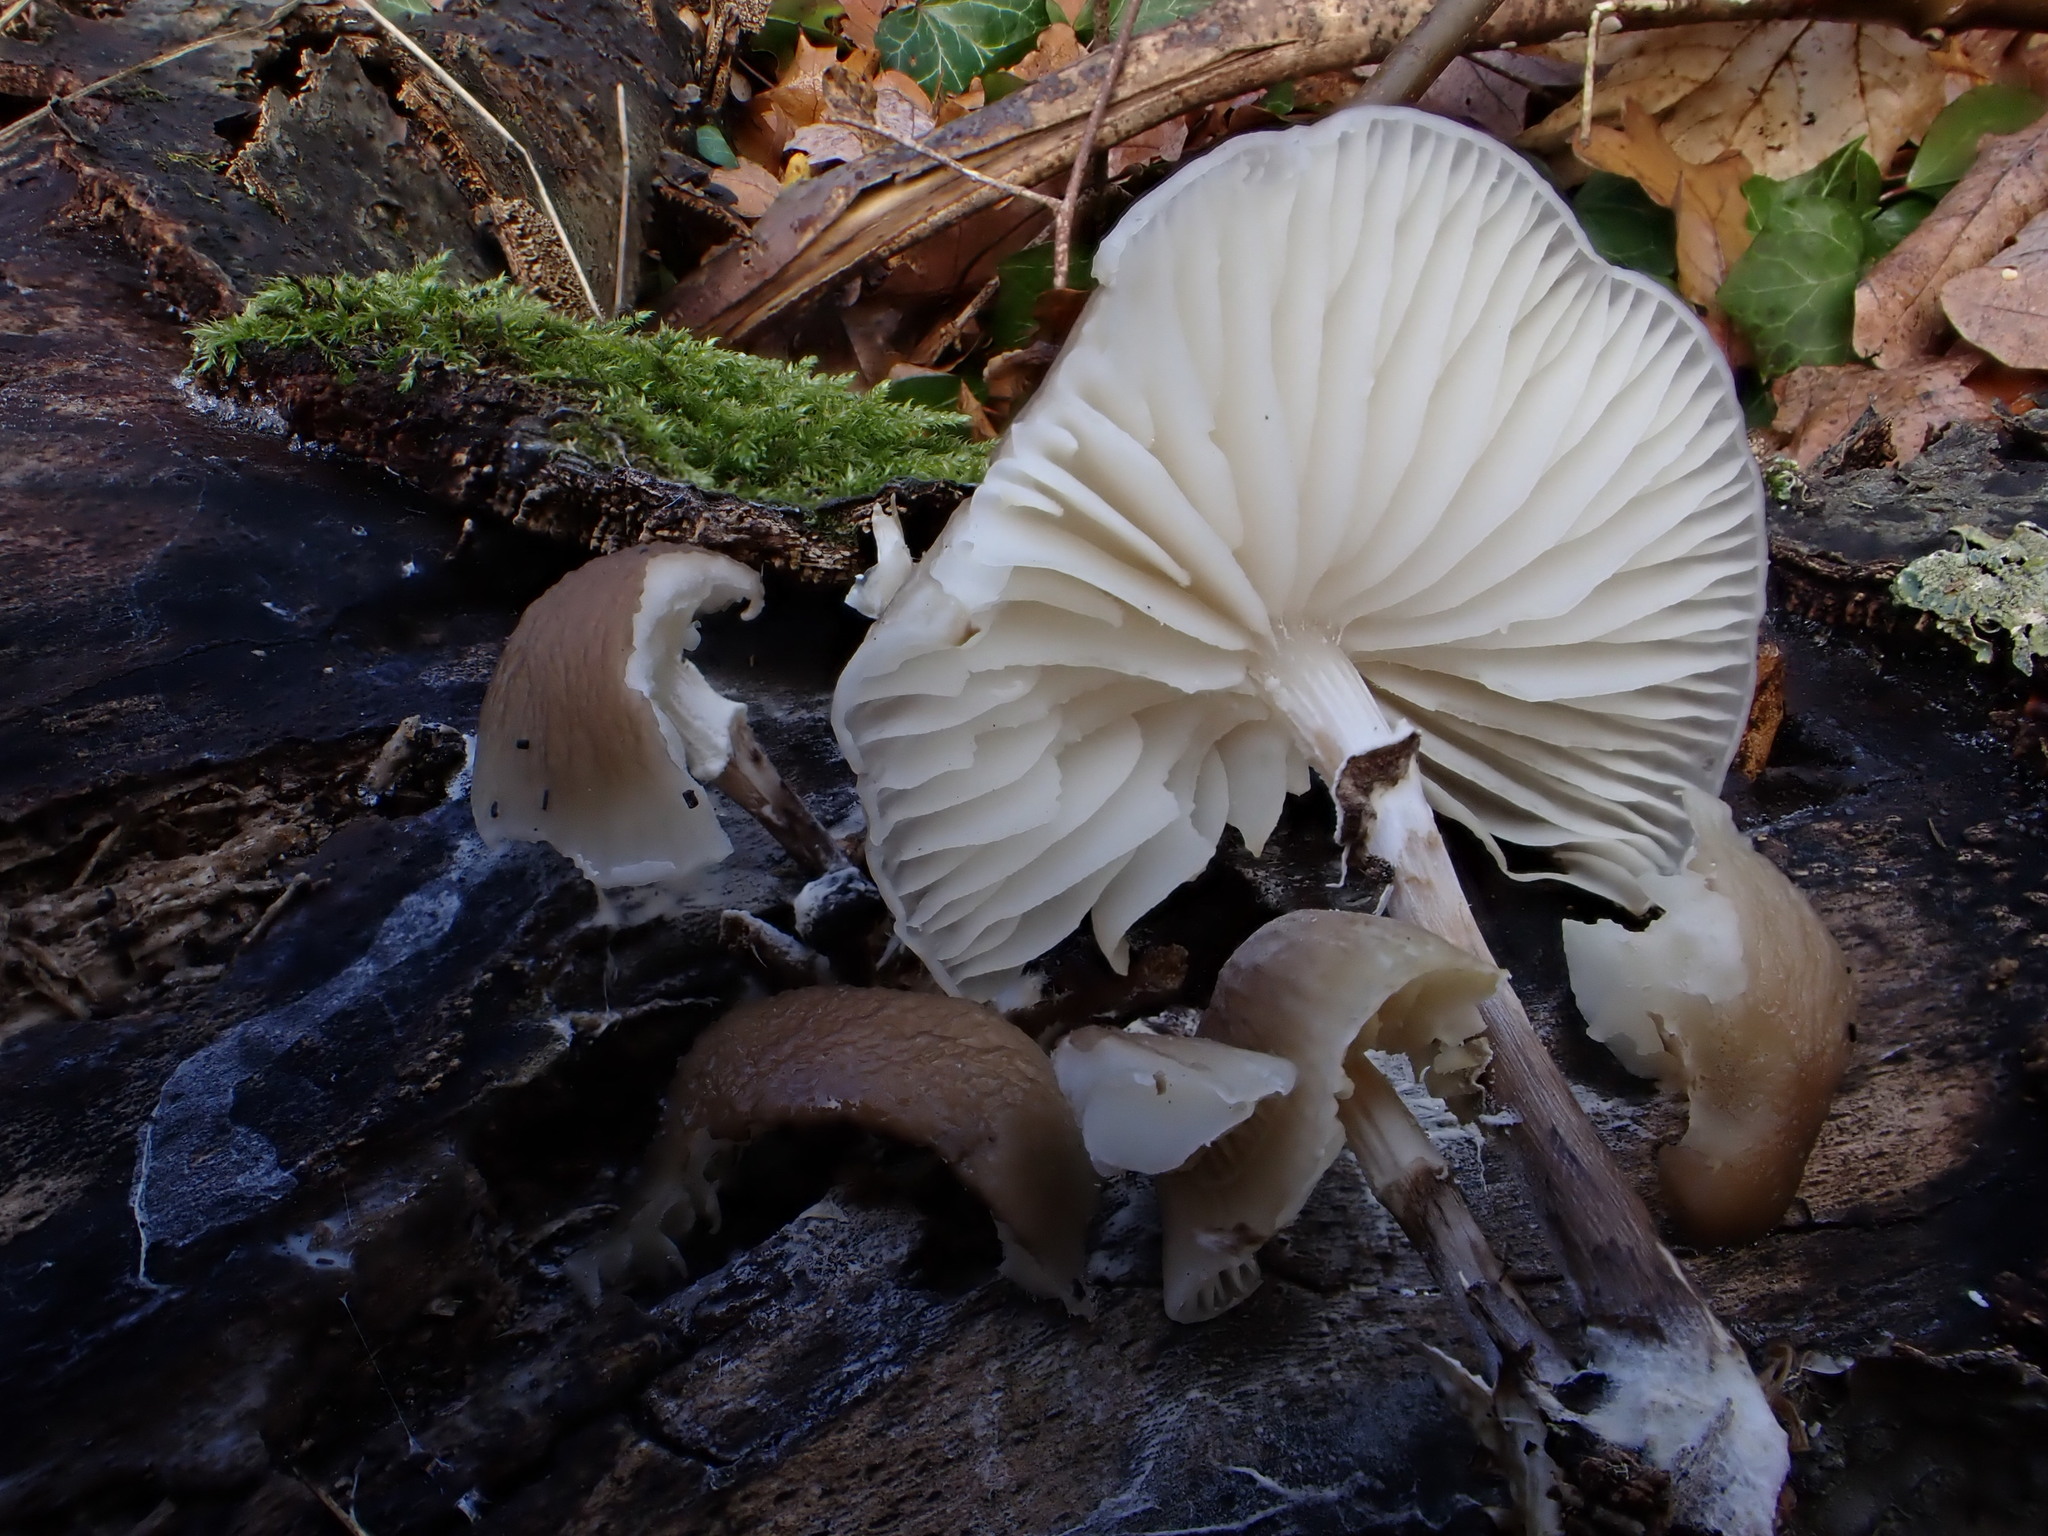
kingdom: Fungi
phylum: Basidiomycota
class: Agaricomycetes
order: Agaricales
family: Physalacriaceae
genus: Mucidula
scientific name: Mucidula mucida
